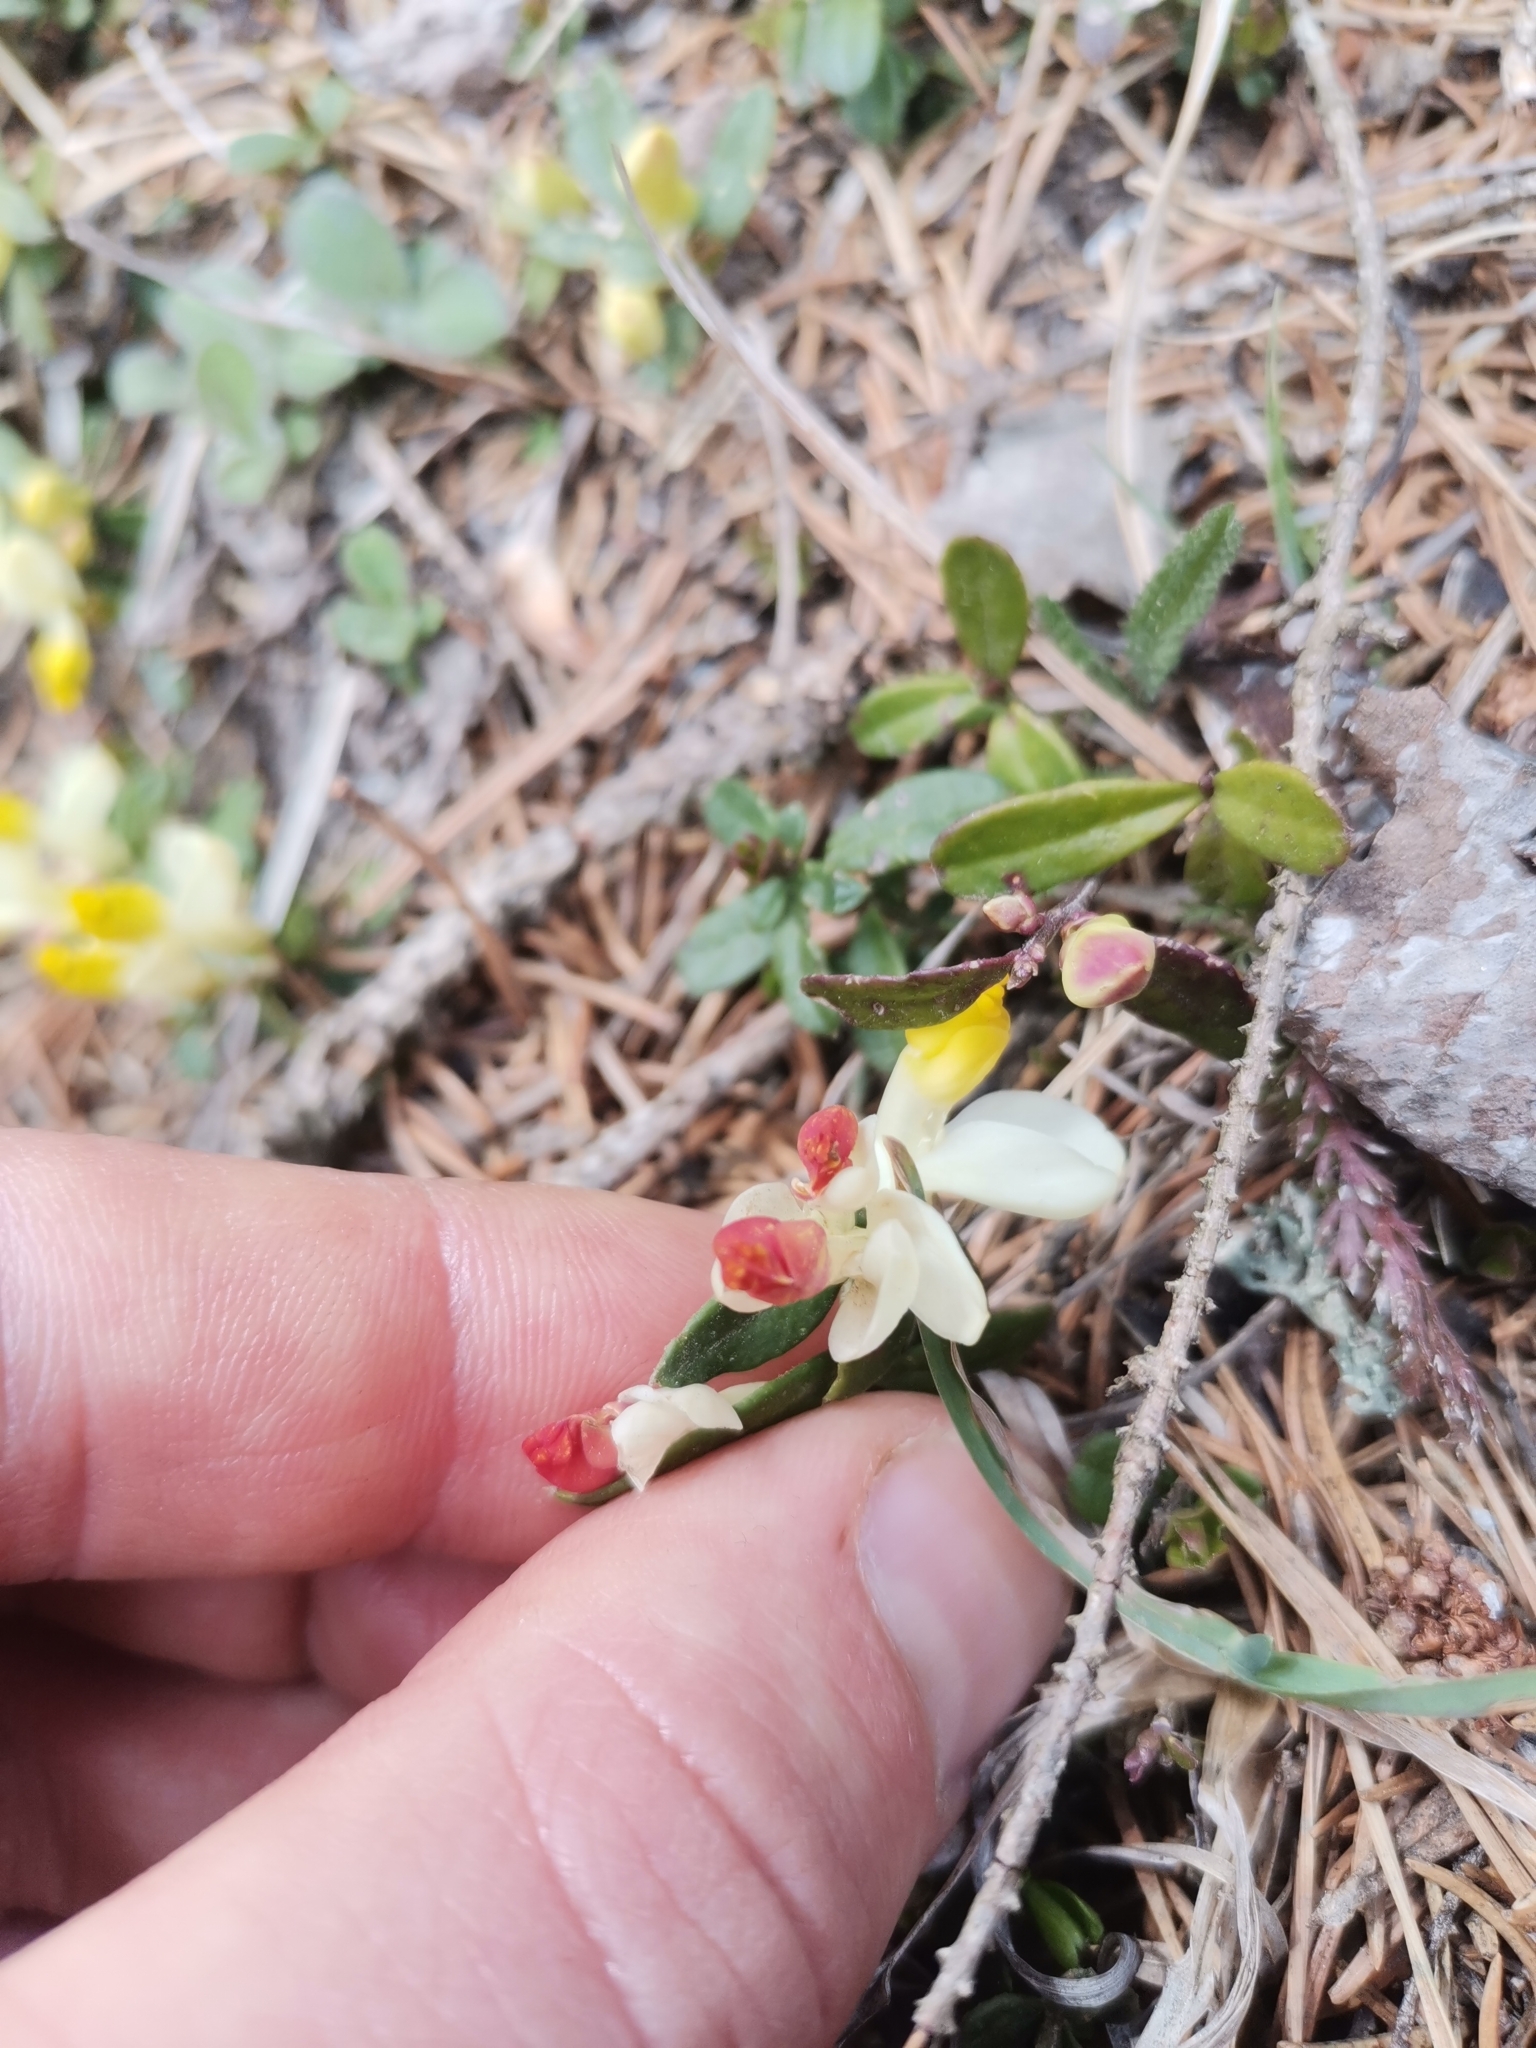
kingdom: Plantae
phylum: Tracheophyta
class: Magnoliopsida
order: Fabales
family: Polygalaceae
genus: Polygaloides
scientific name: Polygaloides chamaebuxus
